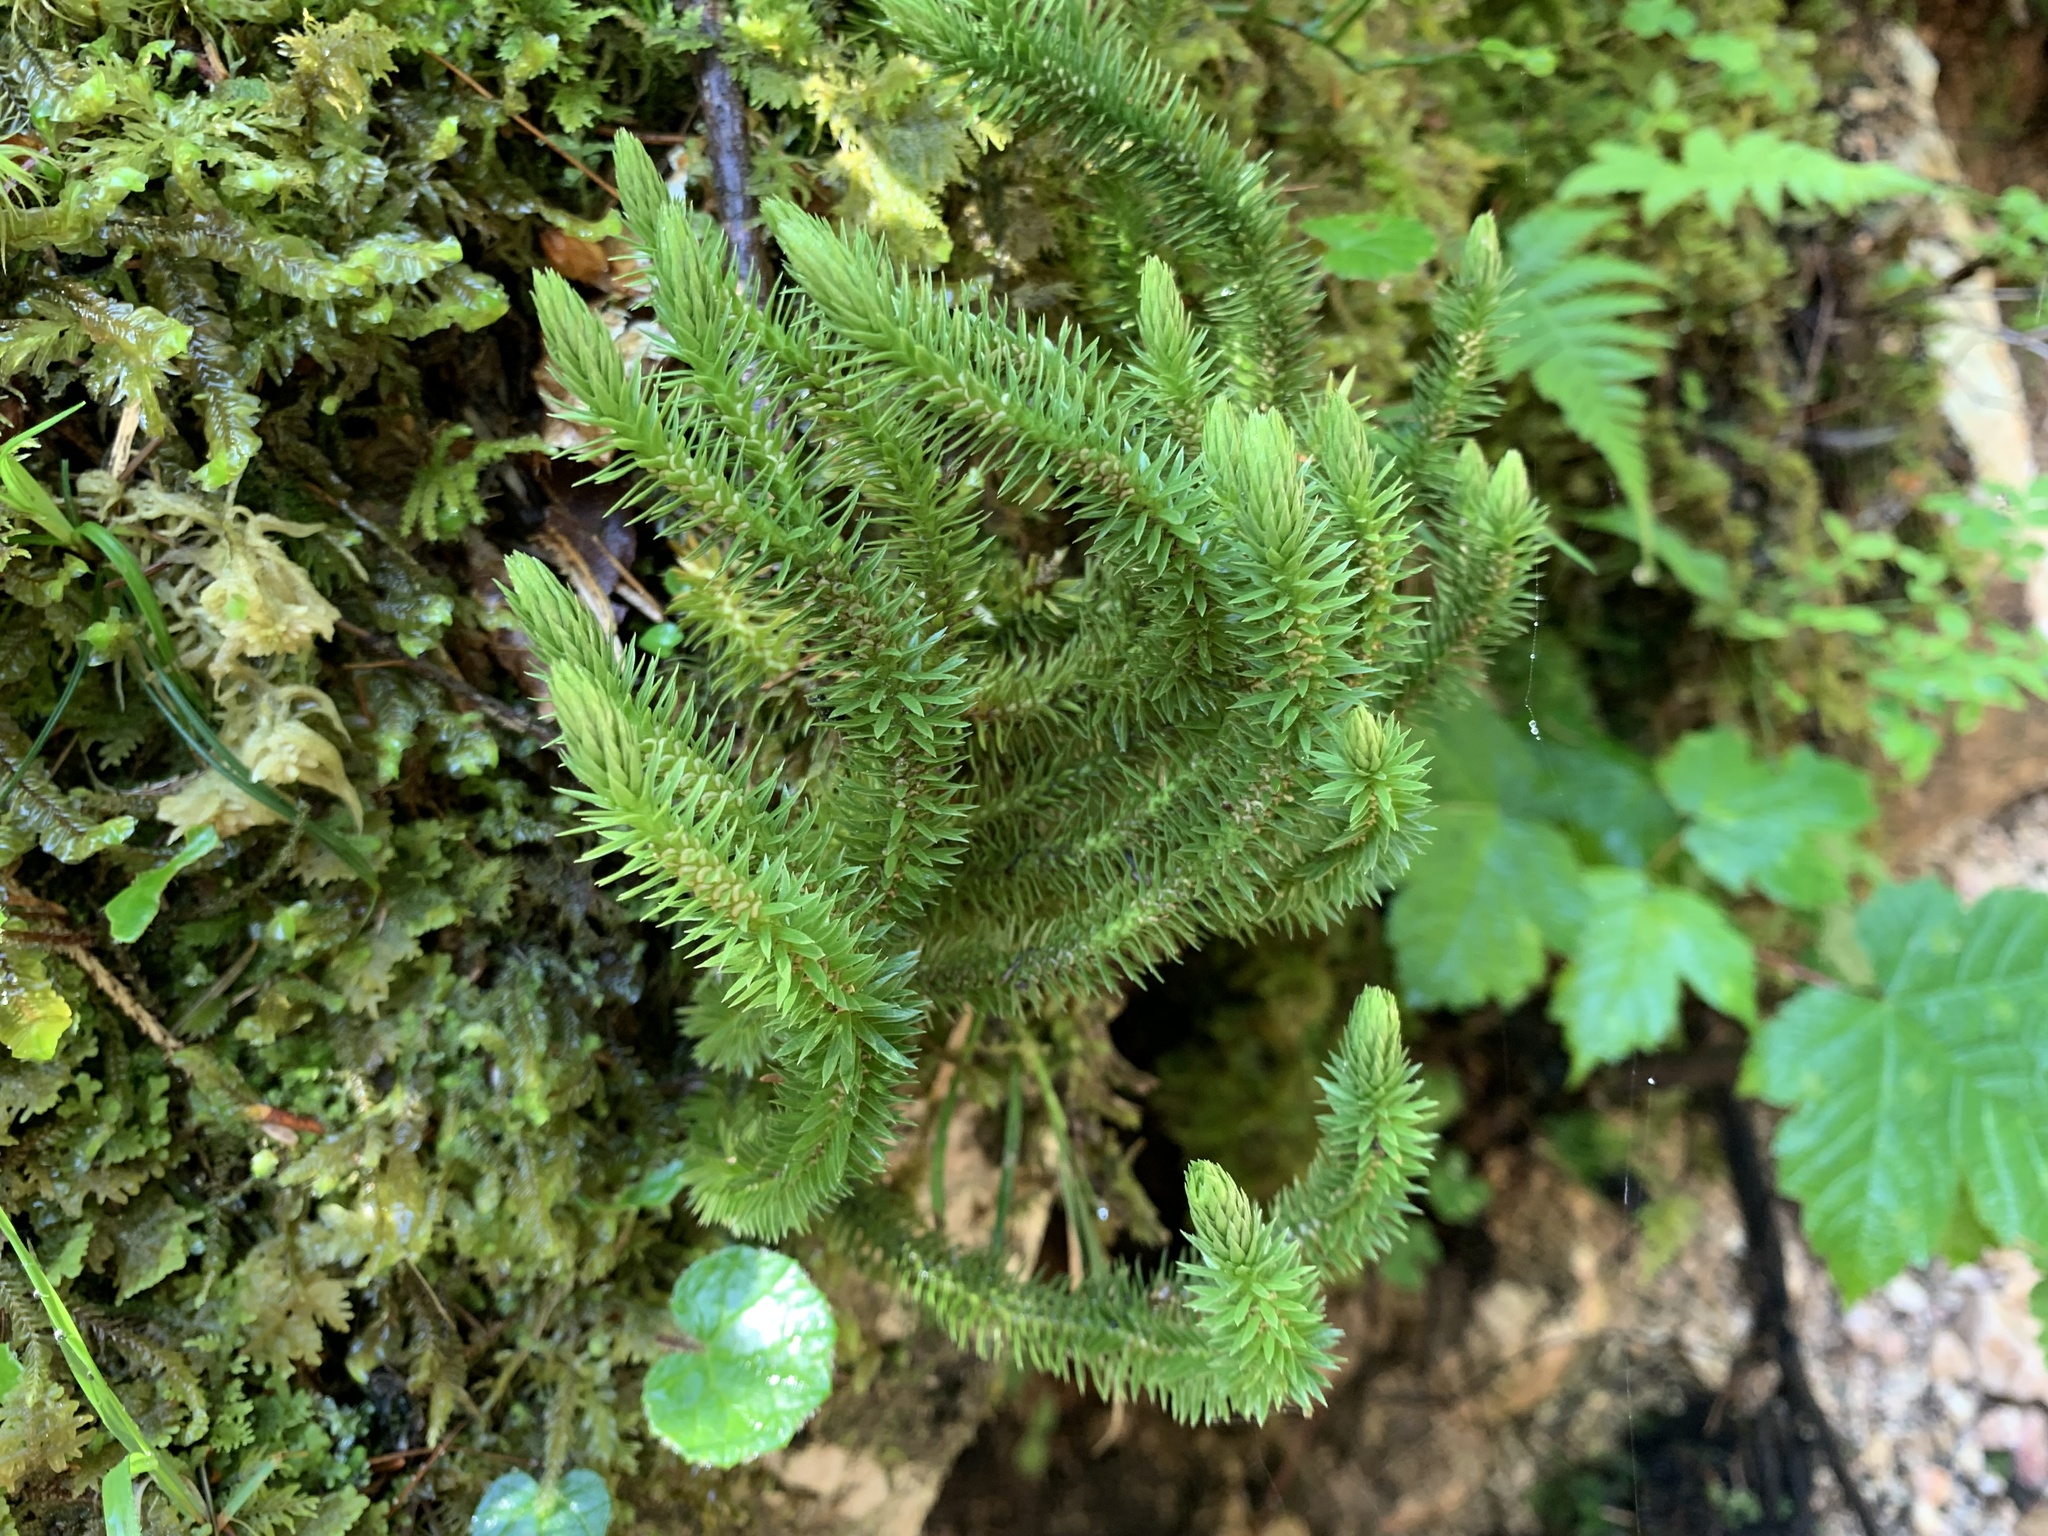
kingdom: Plantae
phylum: Tracheophyta
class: Lycopodiopsida
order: Lycopodiales
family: Lycopodiaceae
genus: Huperzia
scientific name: Huperzia selago
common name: Northern firmoss
